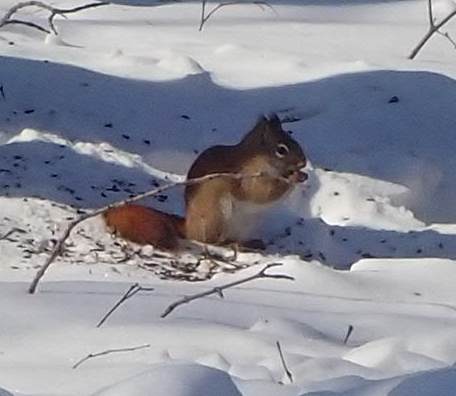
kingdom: Animalia
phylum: Chordata
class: Mammalia
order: Rodentia
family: Sciuridae
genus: Tamiasciurus
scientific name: Tamiasciurus hudsonicus
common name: Red squirrel
